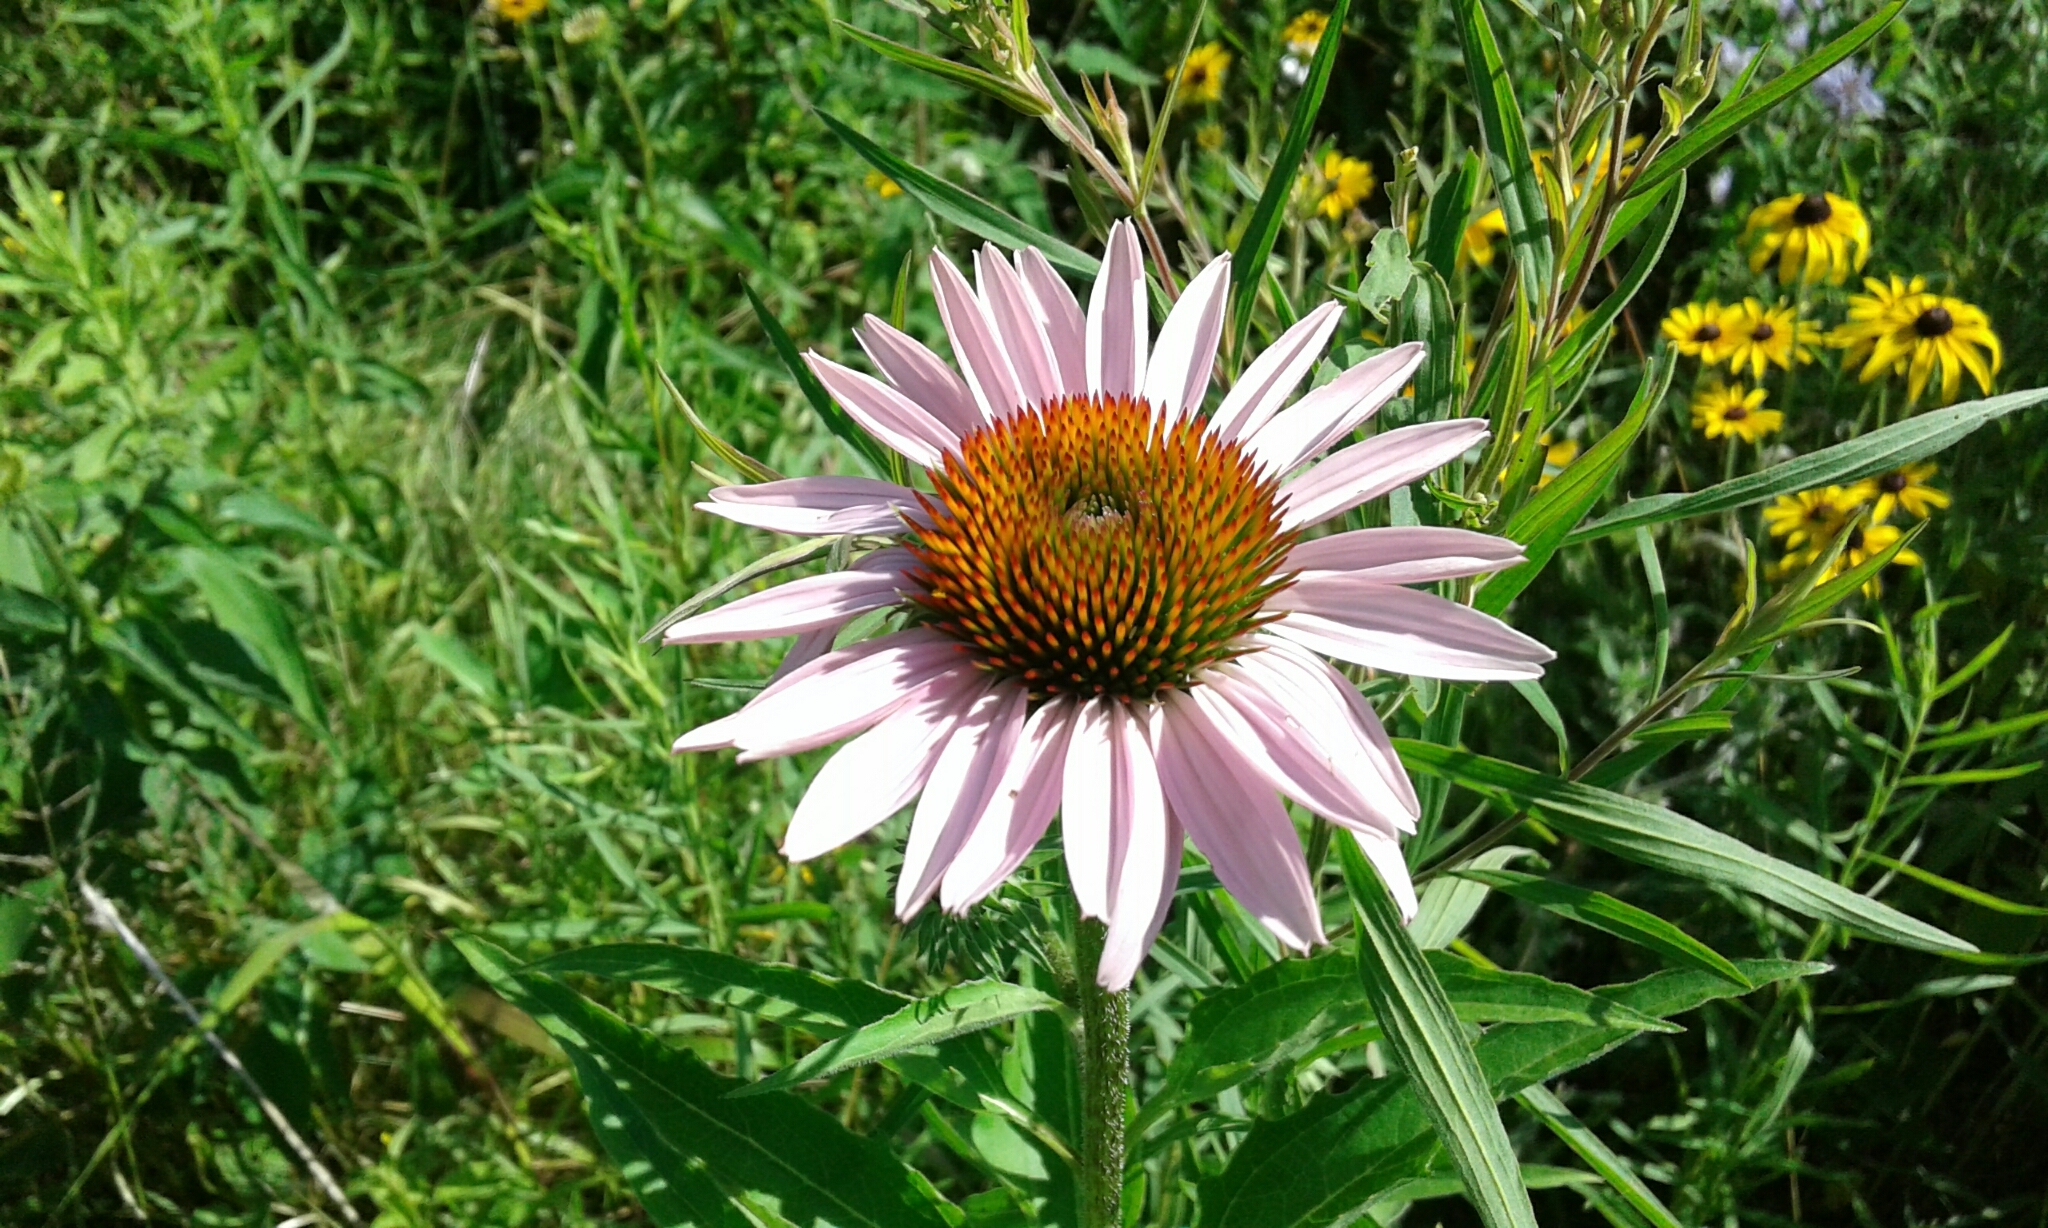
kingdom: Plantae
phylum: Tracheophyta
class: Magnoliopsida
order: Asterales
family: Asteraceae
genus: Echinacea
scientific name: Echinacea purpurea
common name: Broad-leaved purple coneflower
